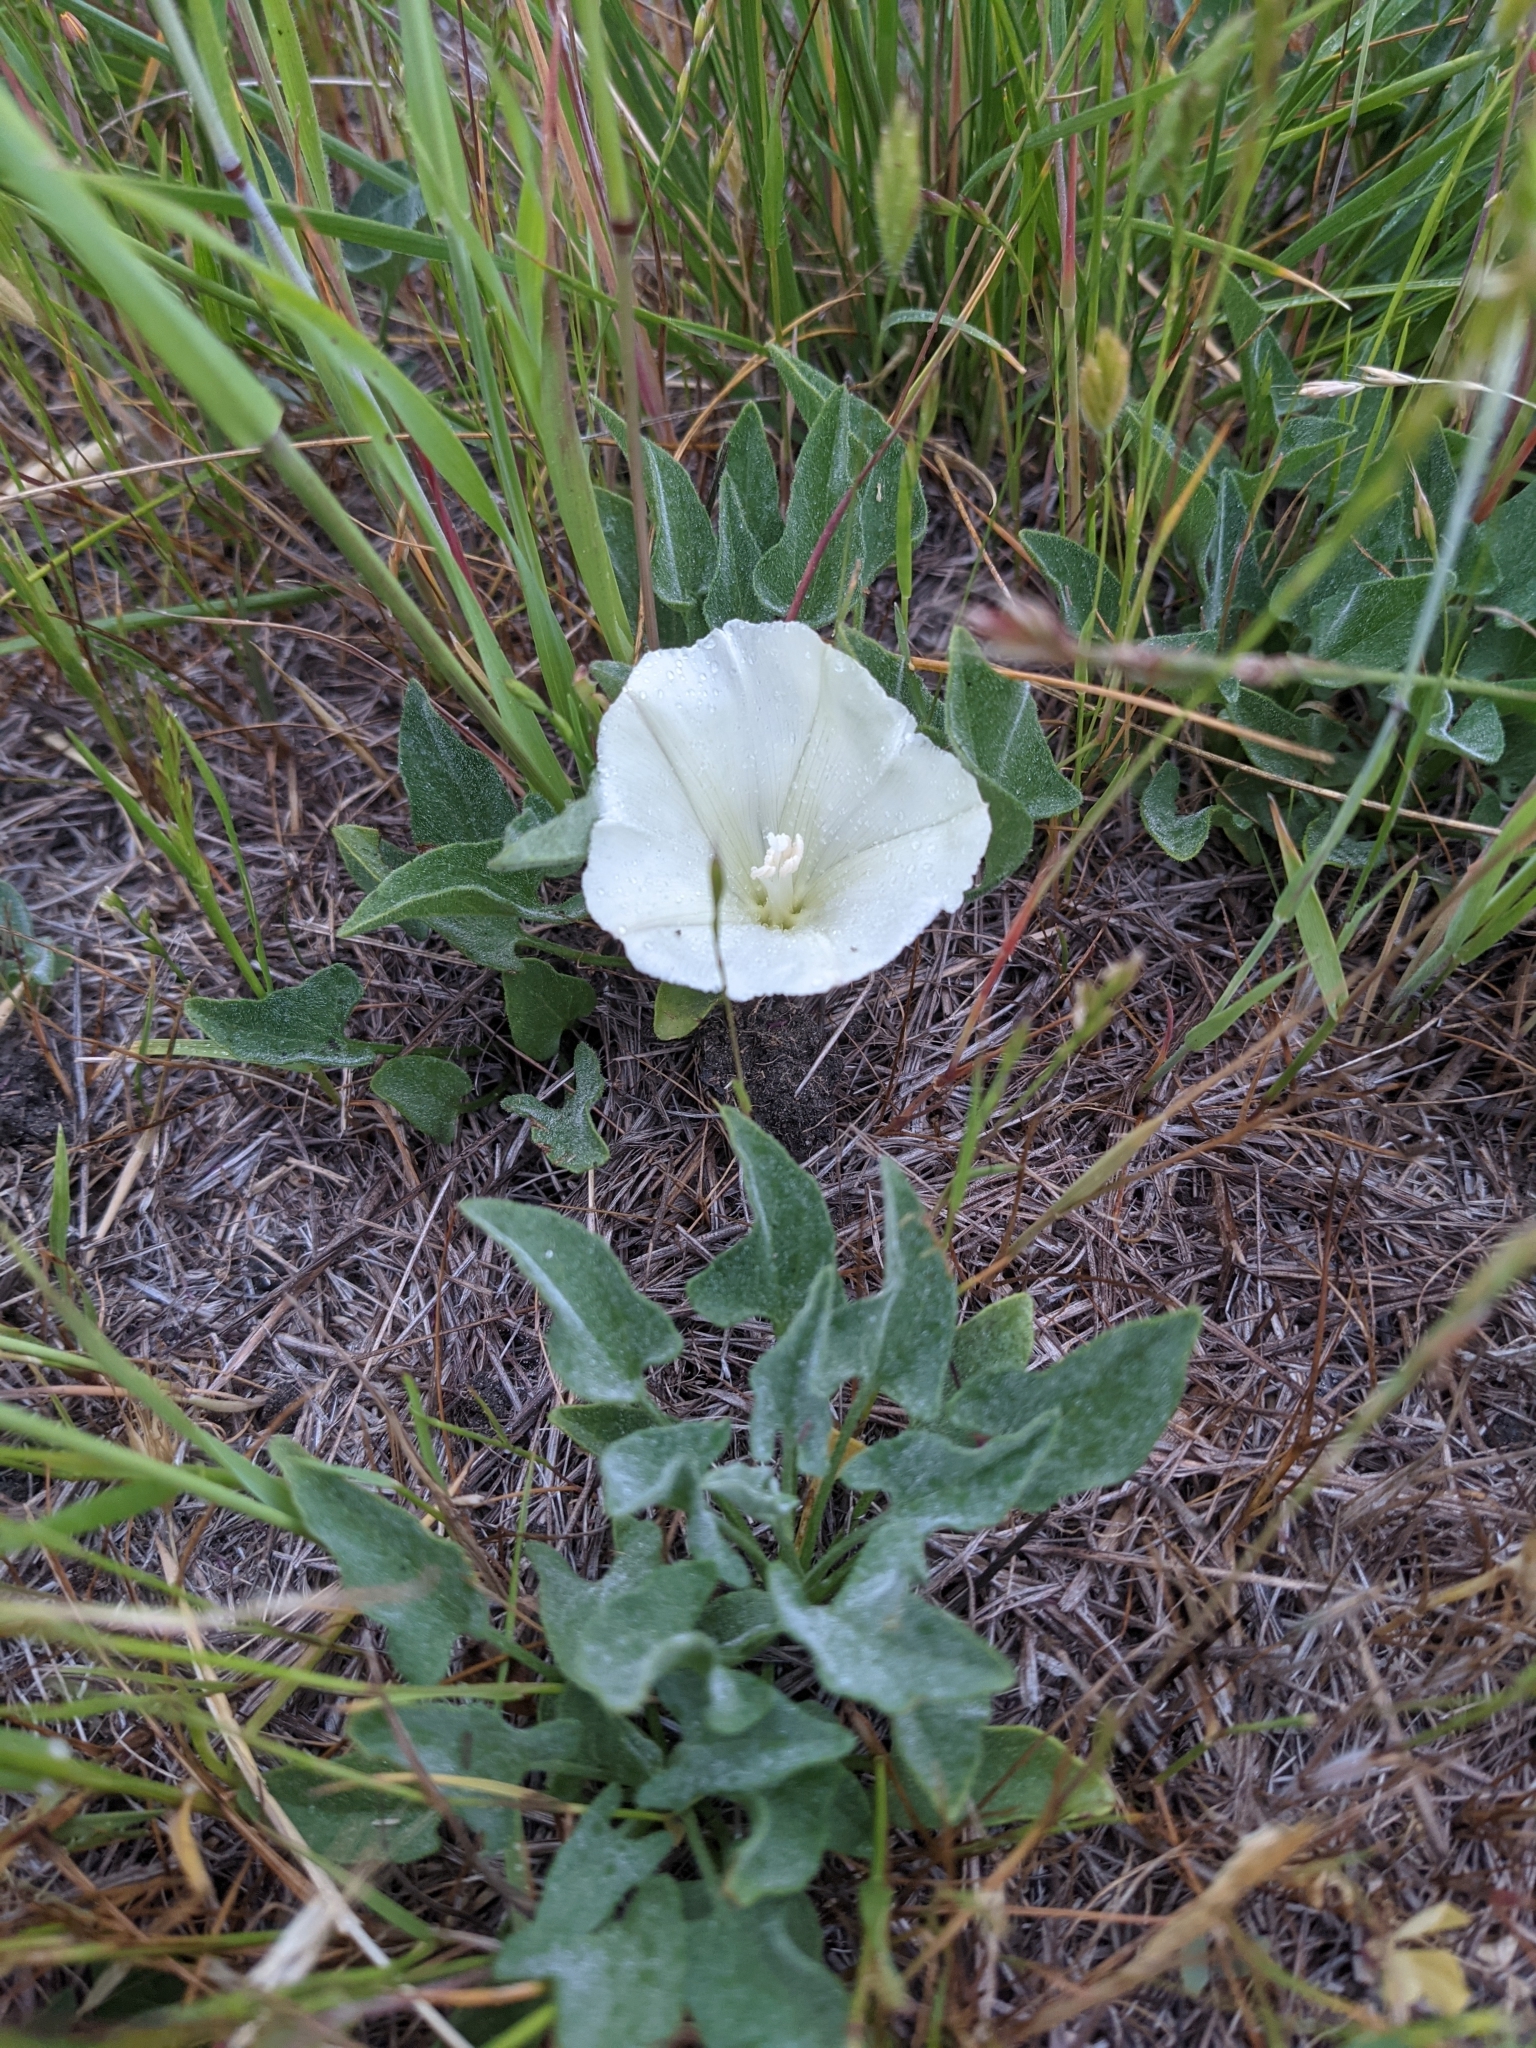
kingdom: Plantae
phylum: Tracheophyta
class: Magnoliopsida
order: Solanales
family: Convolvulaceae
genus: Calystegia
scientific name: Calystegia subacaulis
